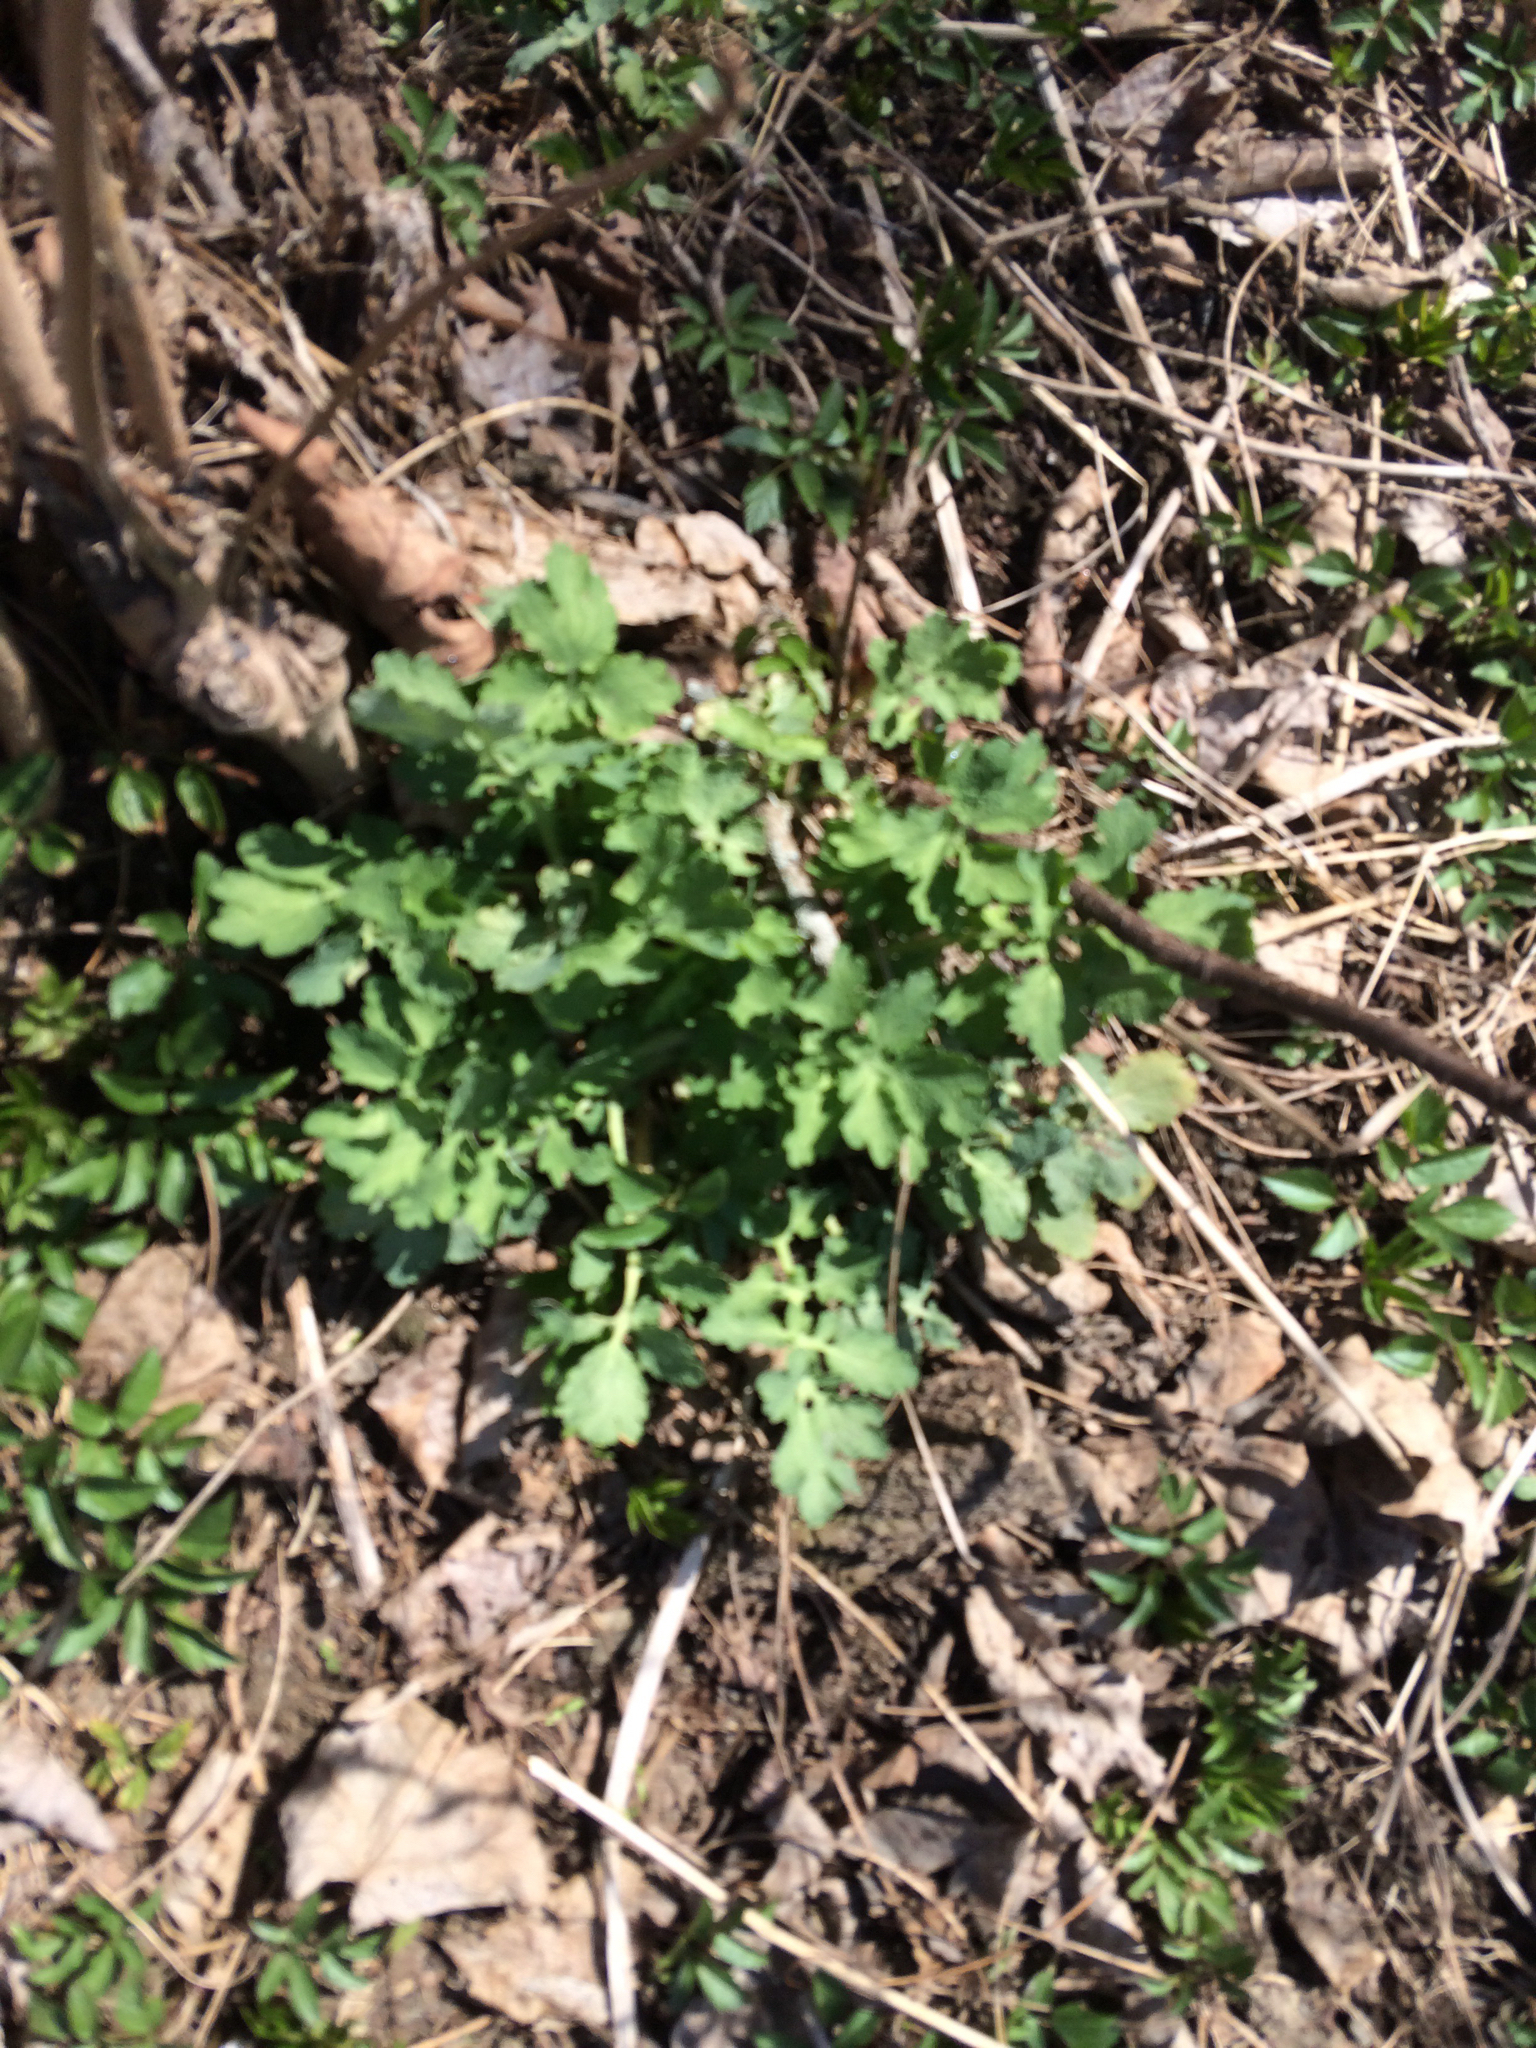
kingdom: Plantae
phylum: Tracheophyta
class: Magnoliopsida
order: Ranunculales
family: Papaveraceae
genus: Chelidonium
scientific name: Chelidonium majus
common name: Greater celandine
